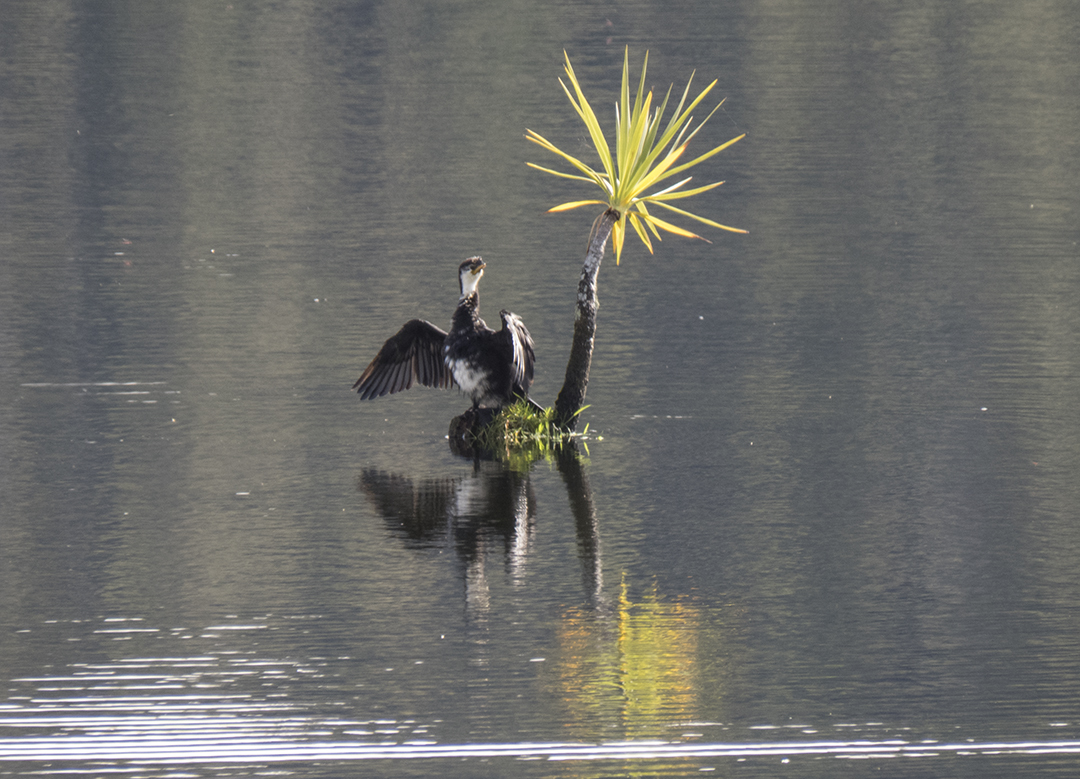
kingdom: Animalia
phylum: Chordata
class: Aves
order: Suliformes
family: Phalacrocoracidae
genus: Microcarbo
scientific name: Microcarbo melanoleucos
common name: Little pied cormorant
